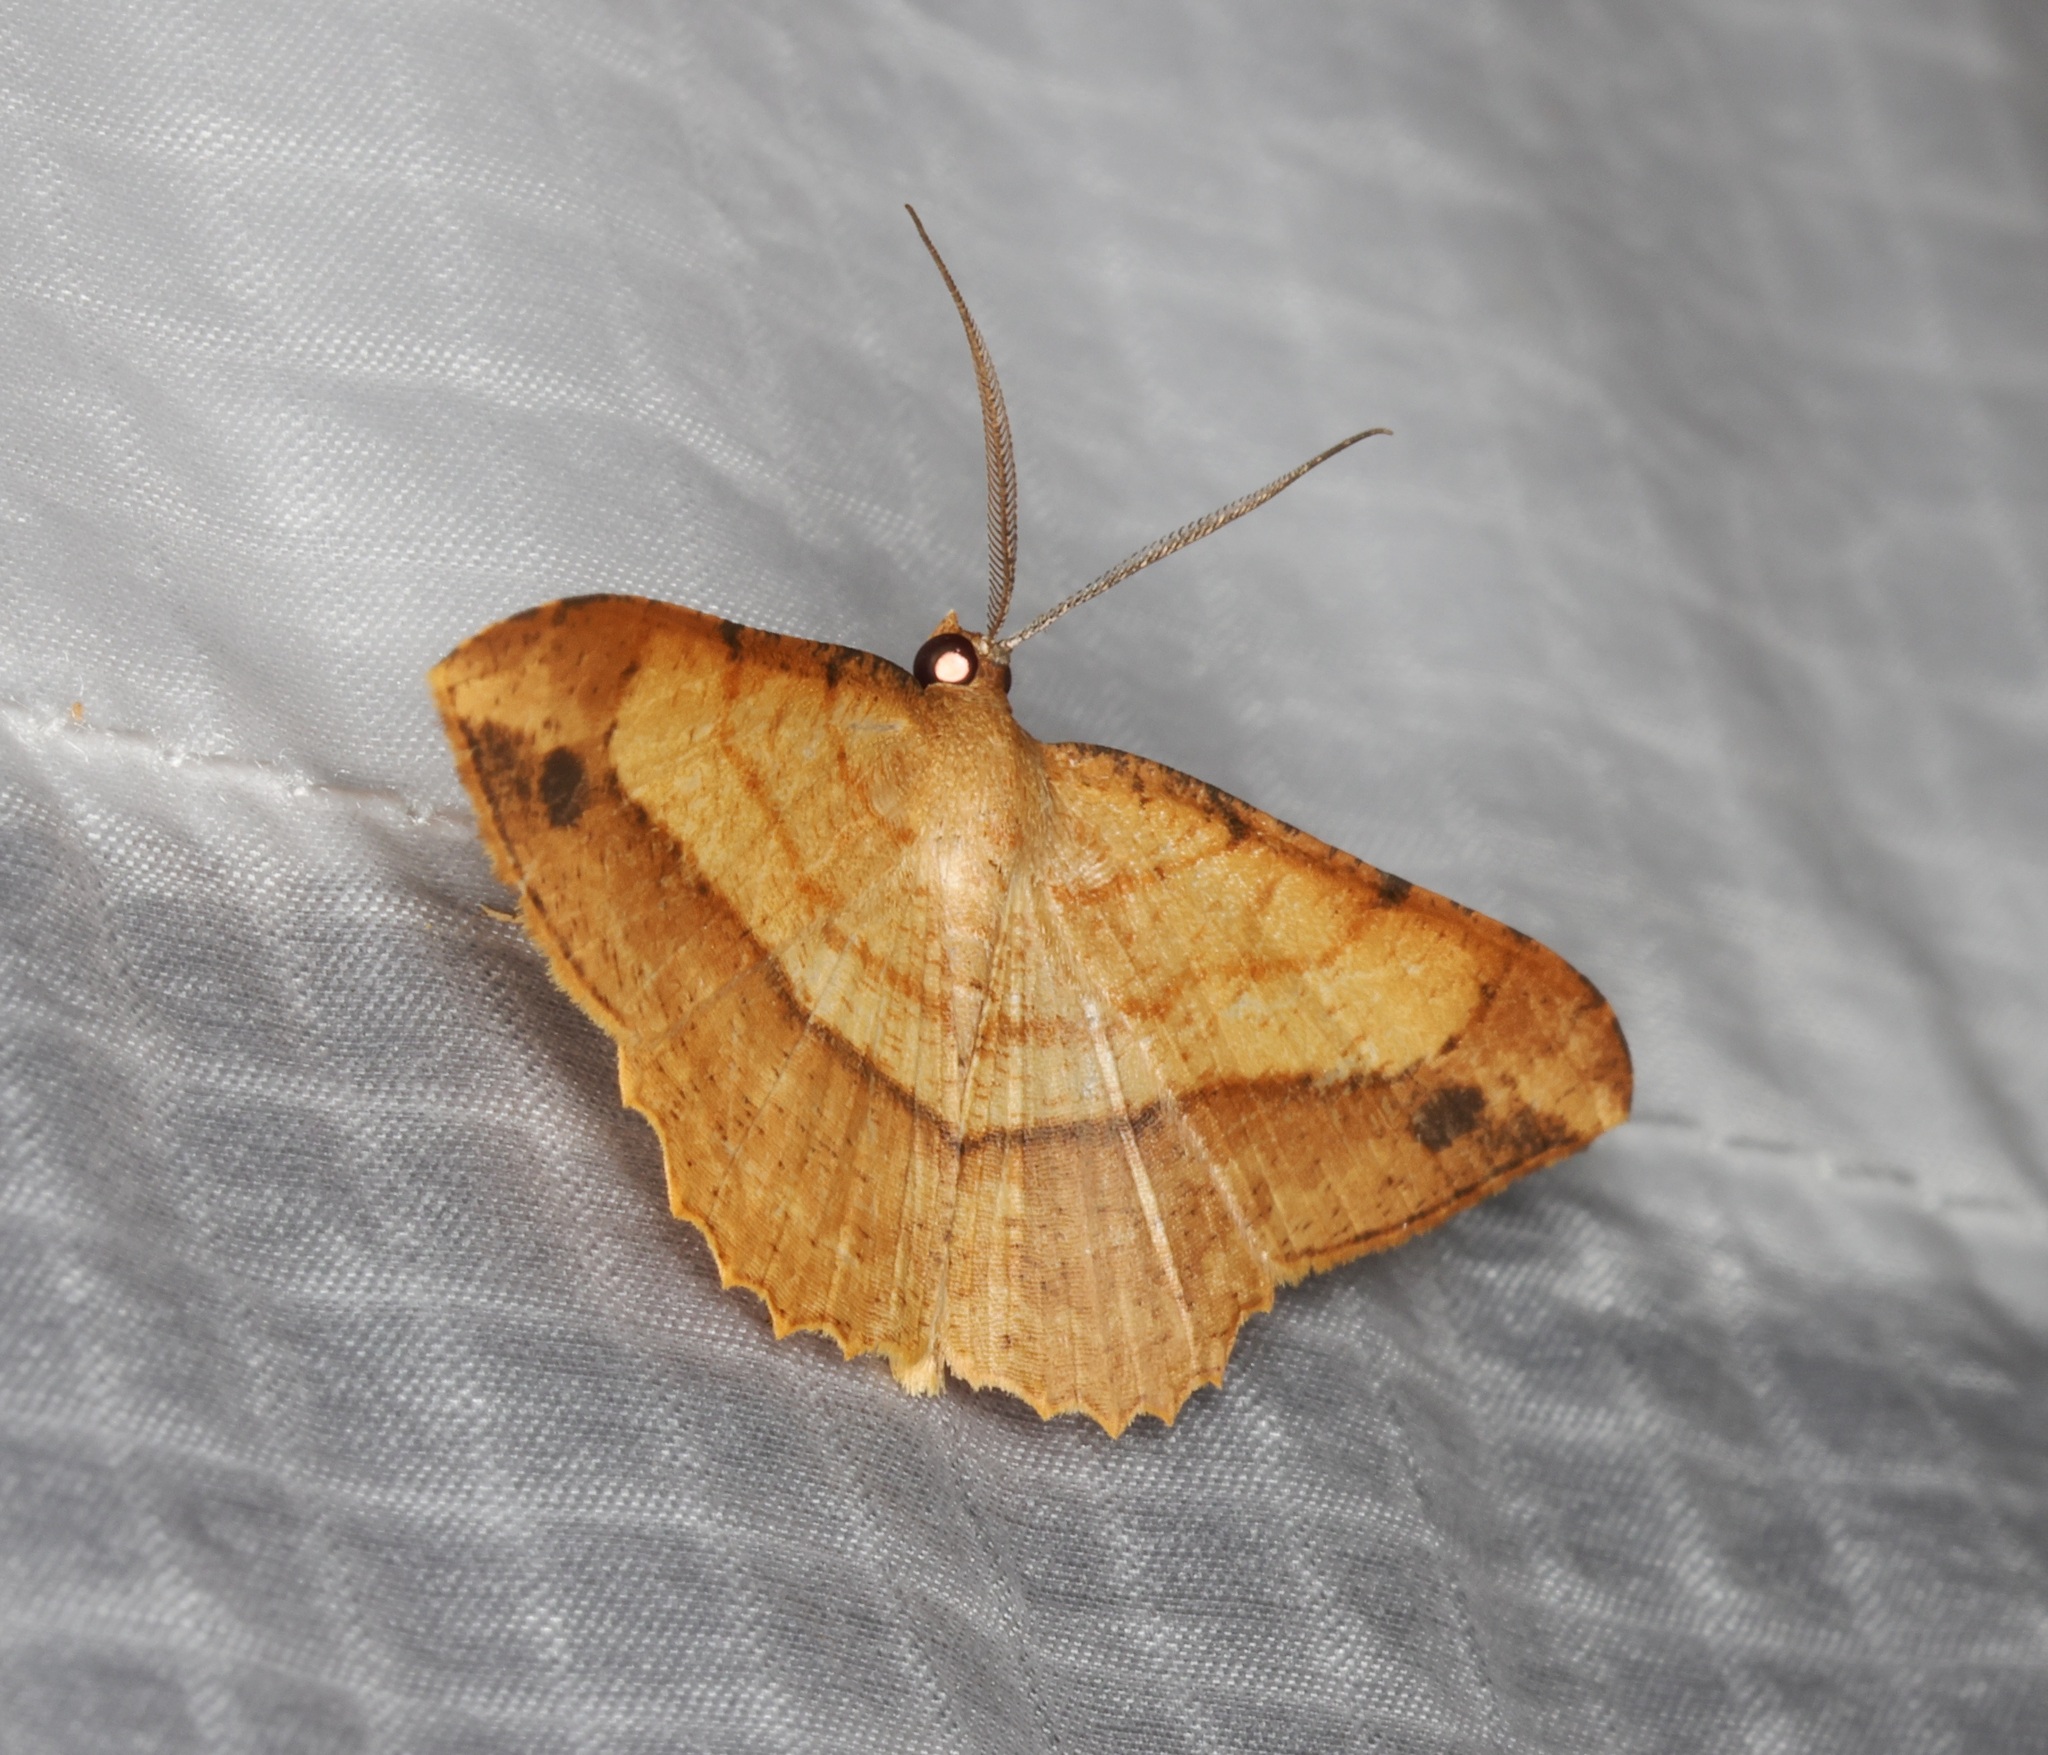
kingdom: Animalia
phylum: Arthropoda
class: Insecta
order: Lepidoptera
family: Geometridae
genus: Pseudonadagara
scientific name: Pseudonadagara semicolor
